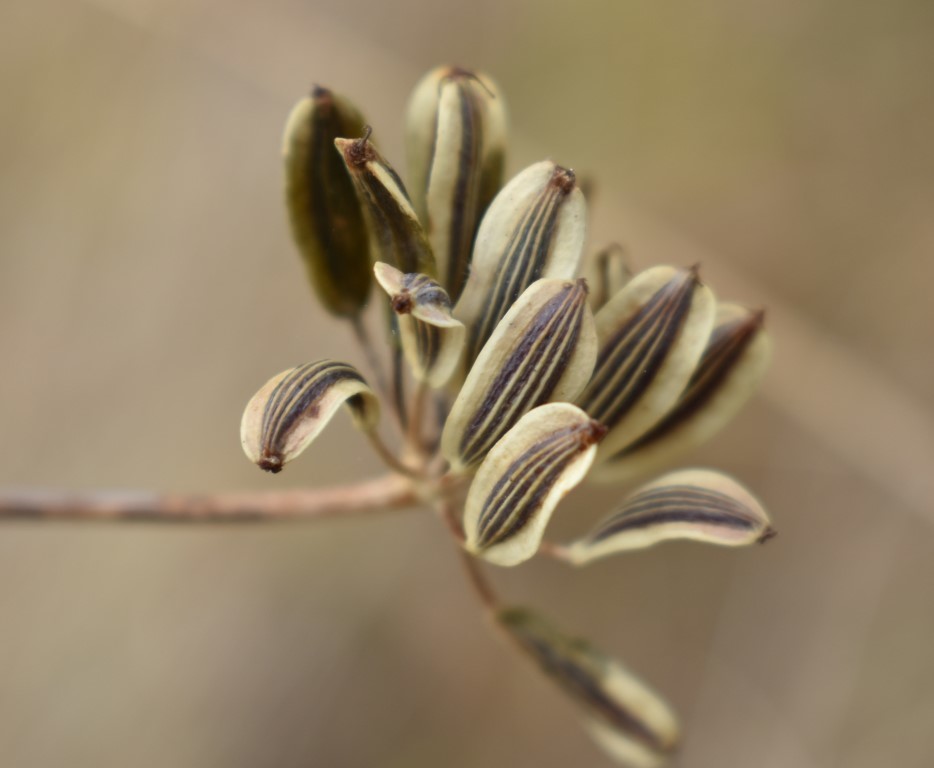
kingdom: Plantae
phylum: Tracheophyta
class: Magnoliopsida
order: Apiales
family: Apiaceae
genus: Lomatium
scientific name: Lomatium nudicaule
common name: Pestle lomatium
